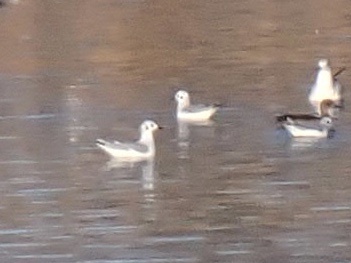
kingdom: Animalia
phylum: Chordata
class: Aves
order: Charadriiformes
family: Laridae
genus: Chroicocephalus
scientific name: Chroicocephalus philadelphia
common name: Bonaparte's gull
